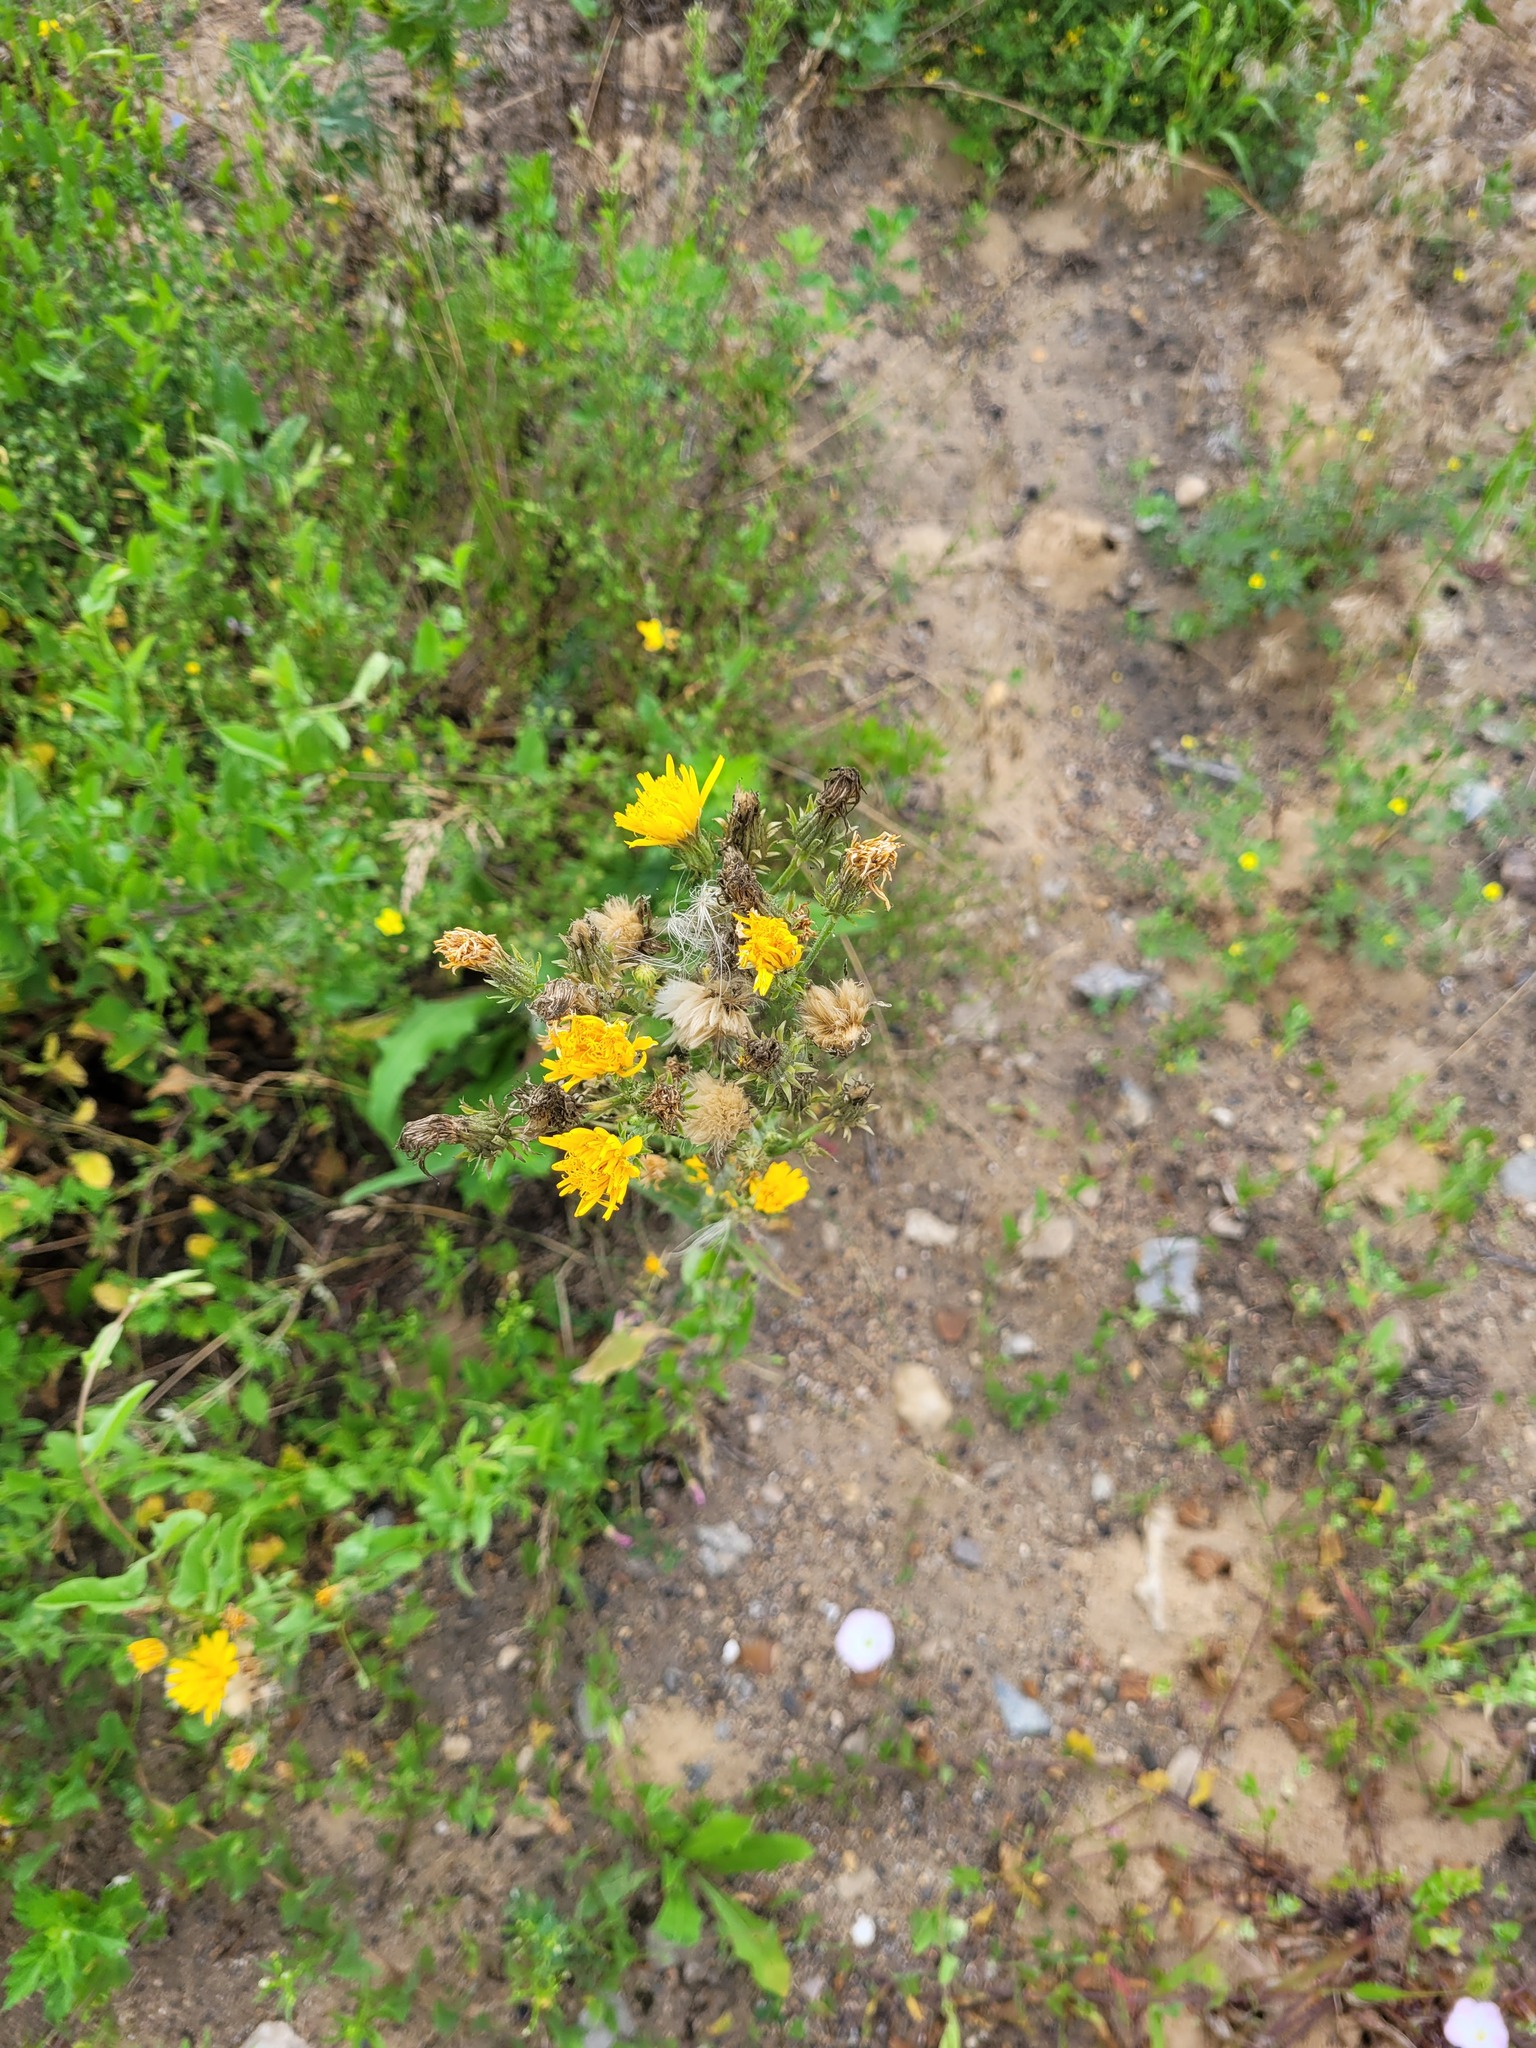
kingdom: Plantae
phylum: Tracheophyta
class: Magnoliopsida
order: Asterales
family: Asteraceae
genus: Picris
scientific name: Picris hieracioides
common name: Hawkweed oxtongue
